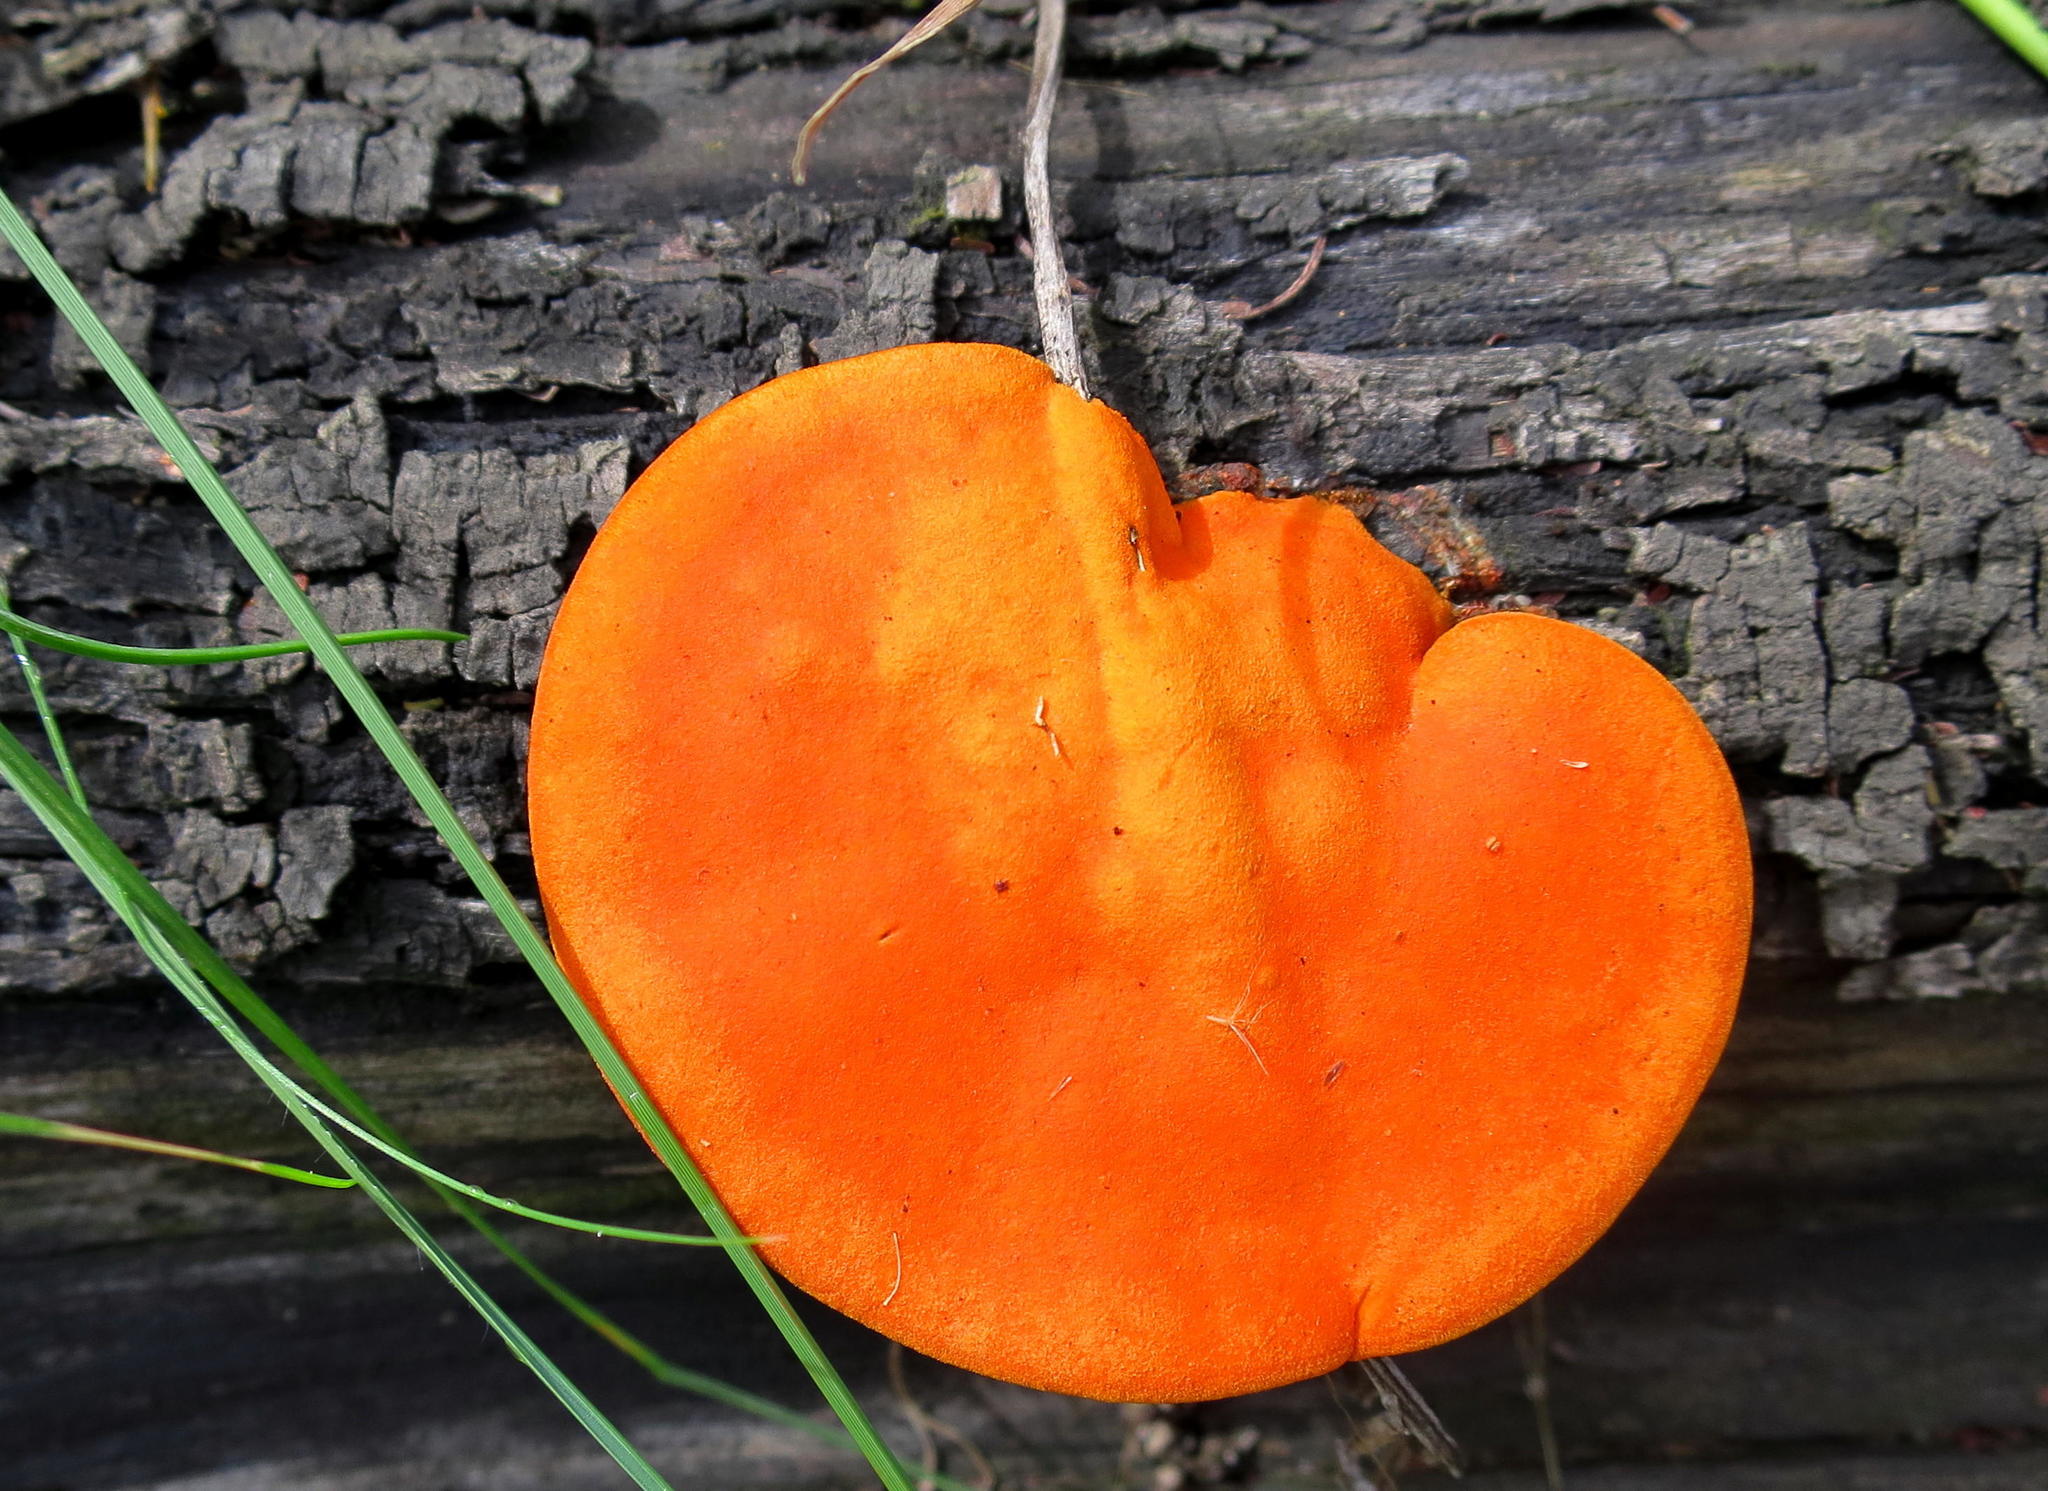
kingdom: Fungi
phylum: Basidiomycota
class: Agaricomycetes
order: Polyporales
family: Polyporaceae
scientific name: Polyporaceae
